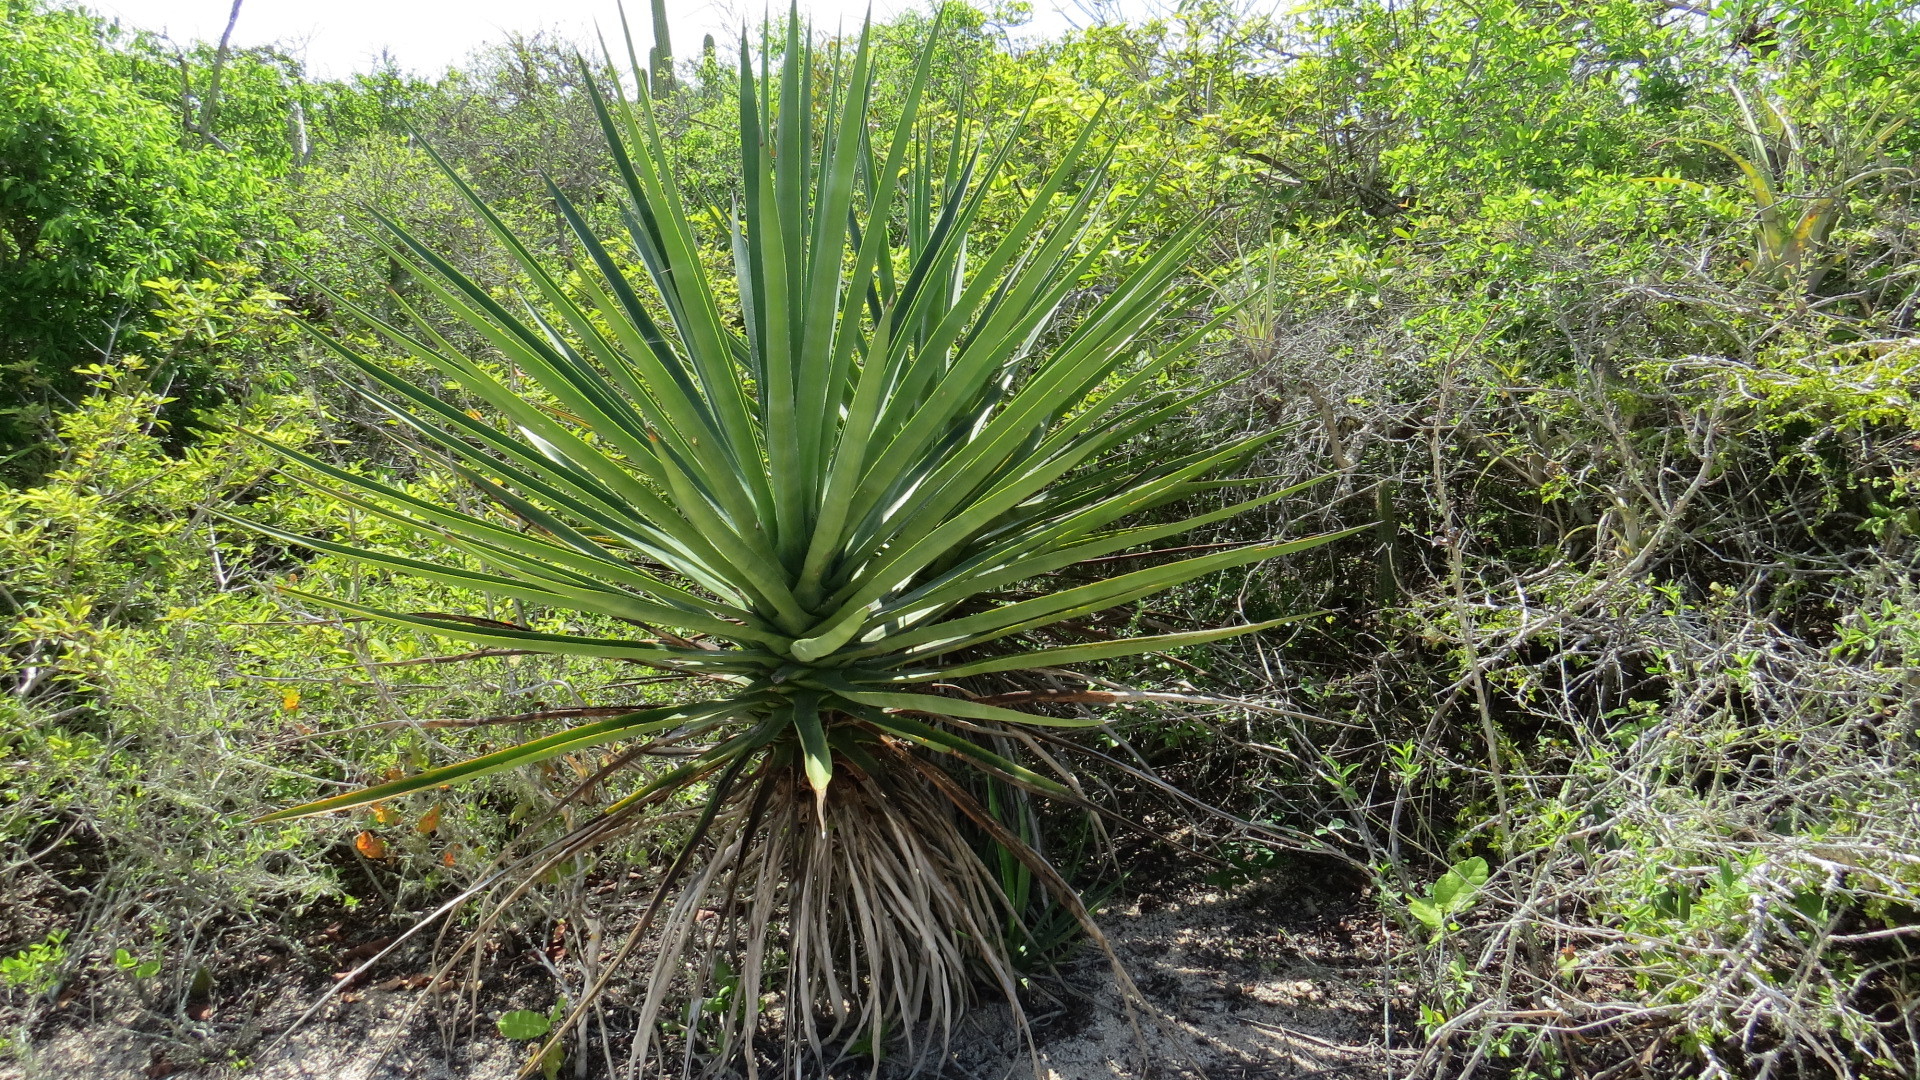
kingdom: Plantae
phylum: Tracheophyta
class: Liliopsida
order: Asparagales
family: Asparagaceae
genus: Agave
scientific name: Agave karwinskii
